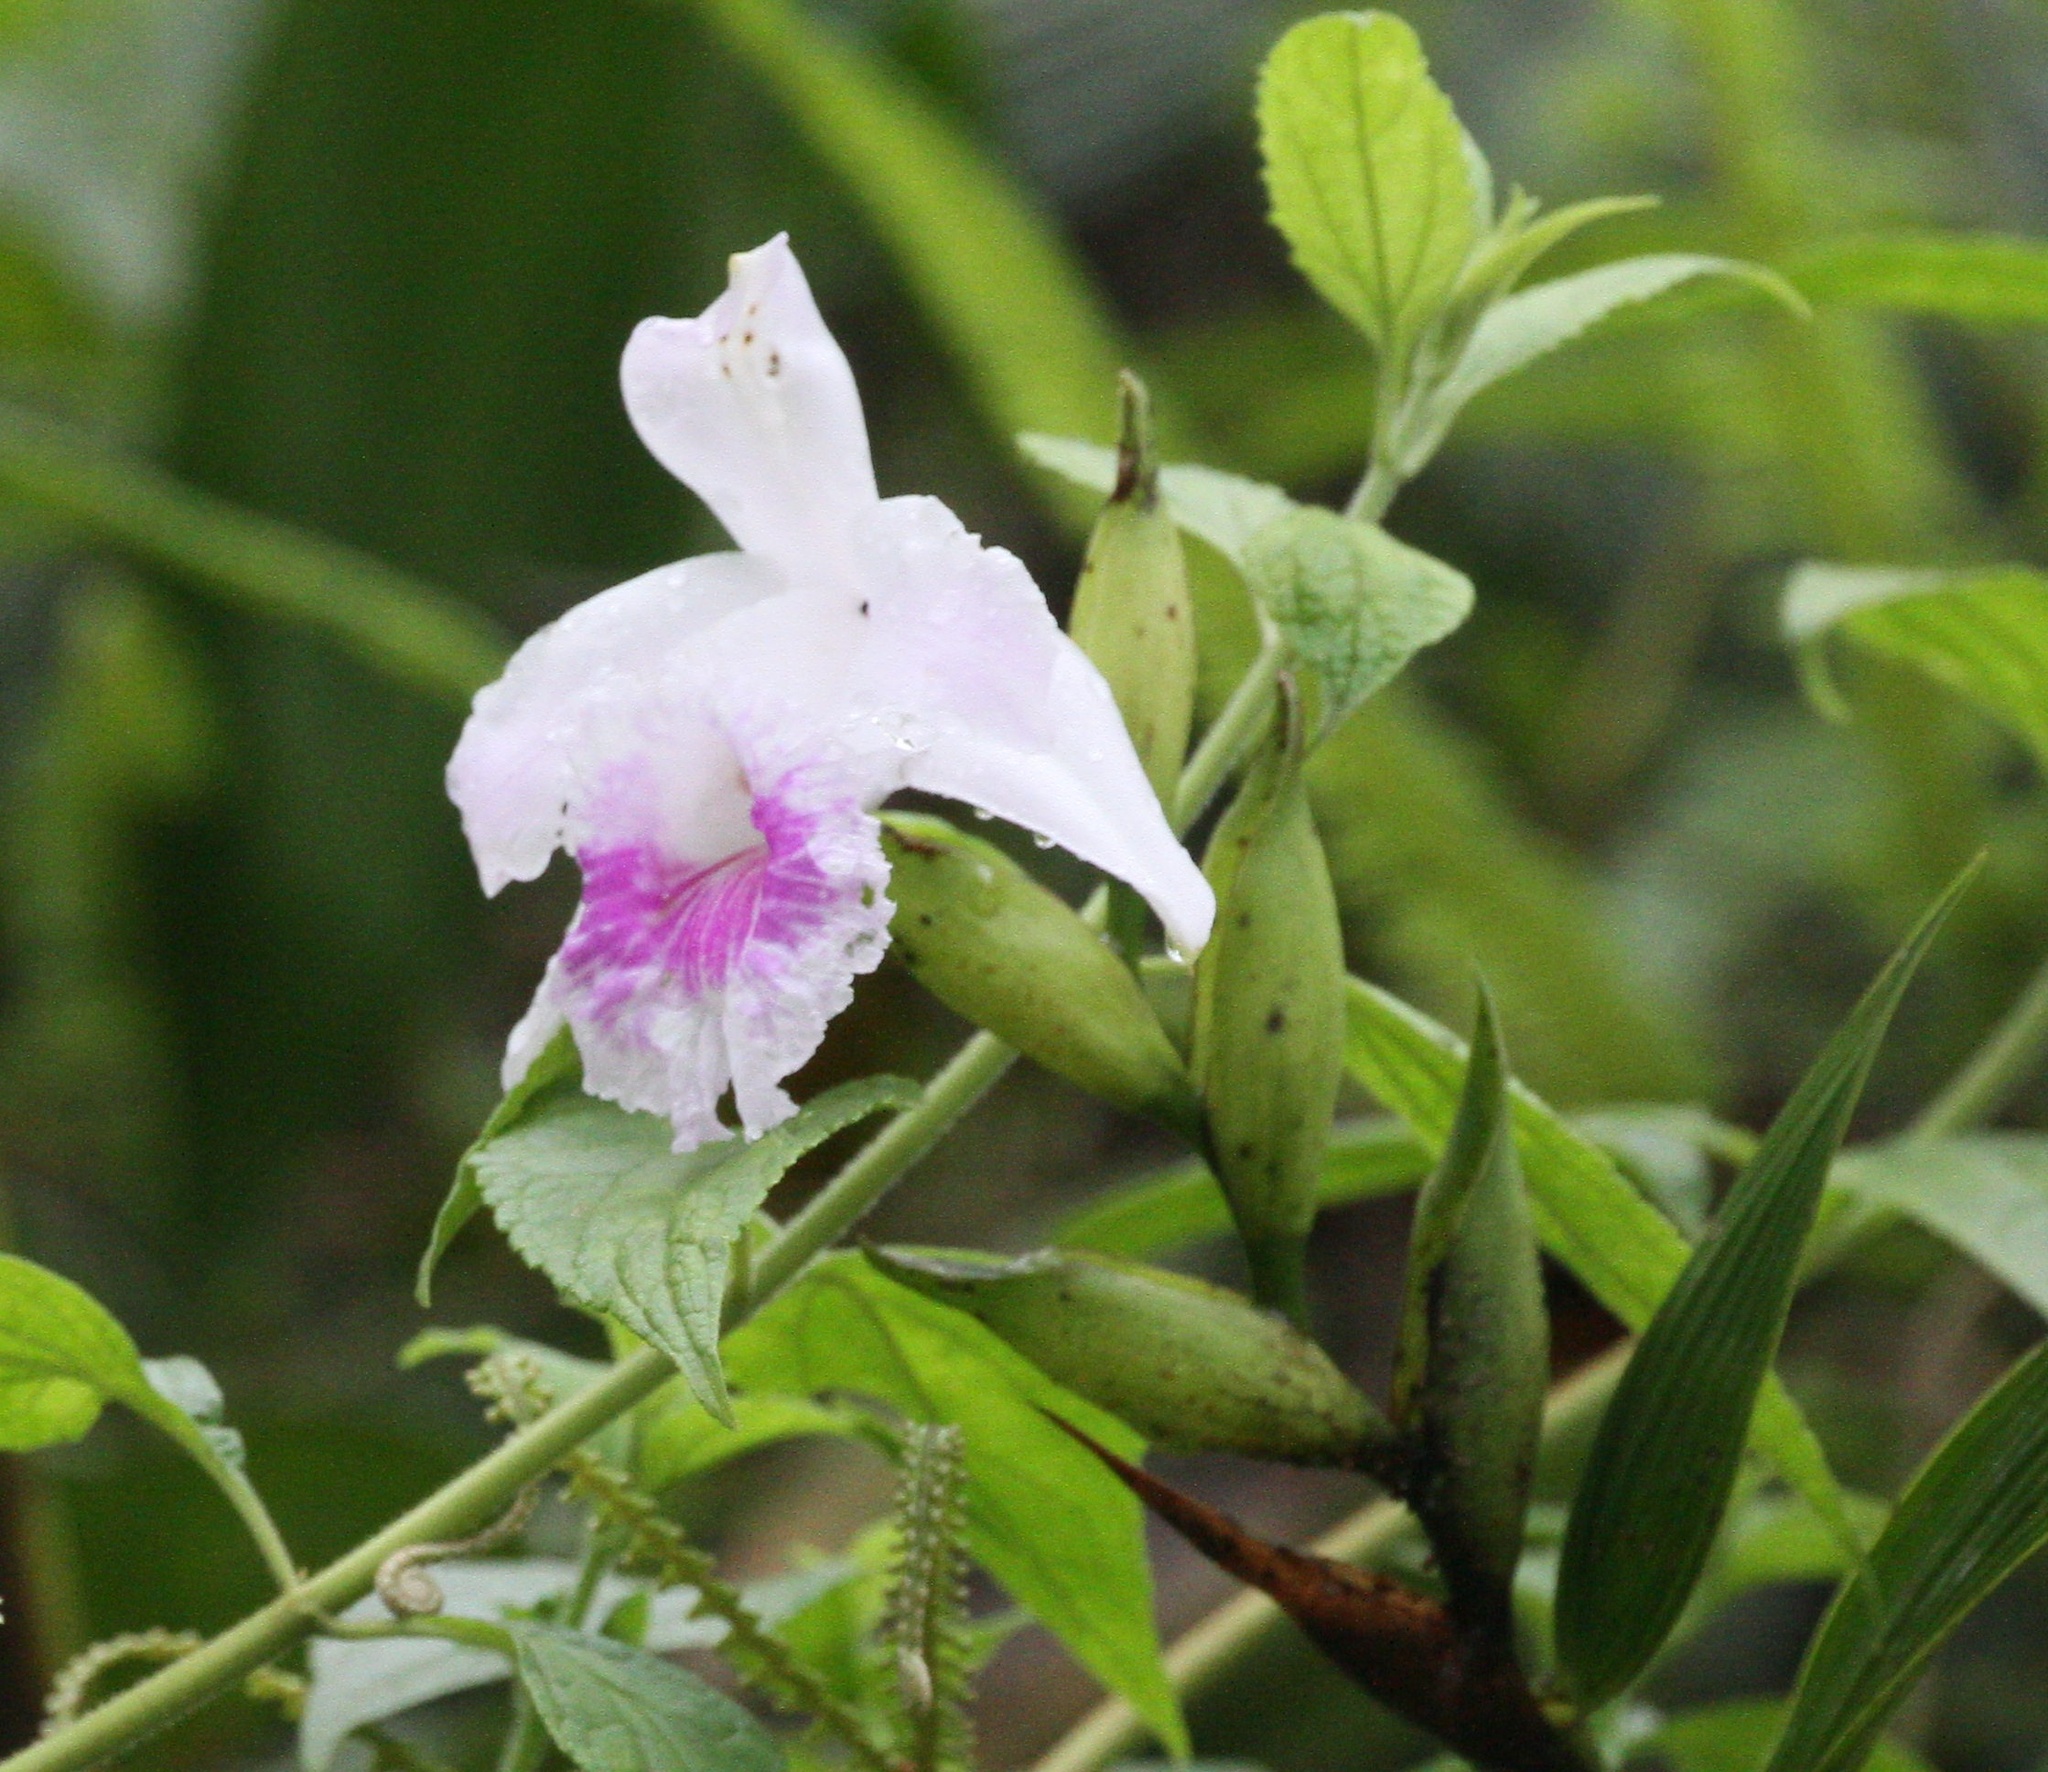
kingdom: Plantae
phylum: Tracheophyta
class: Liliopsida
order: Asparagales
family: Orchidaceae
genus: Sobralia
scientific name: Sobralia rosea
